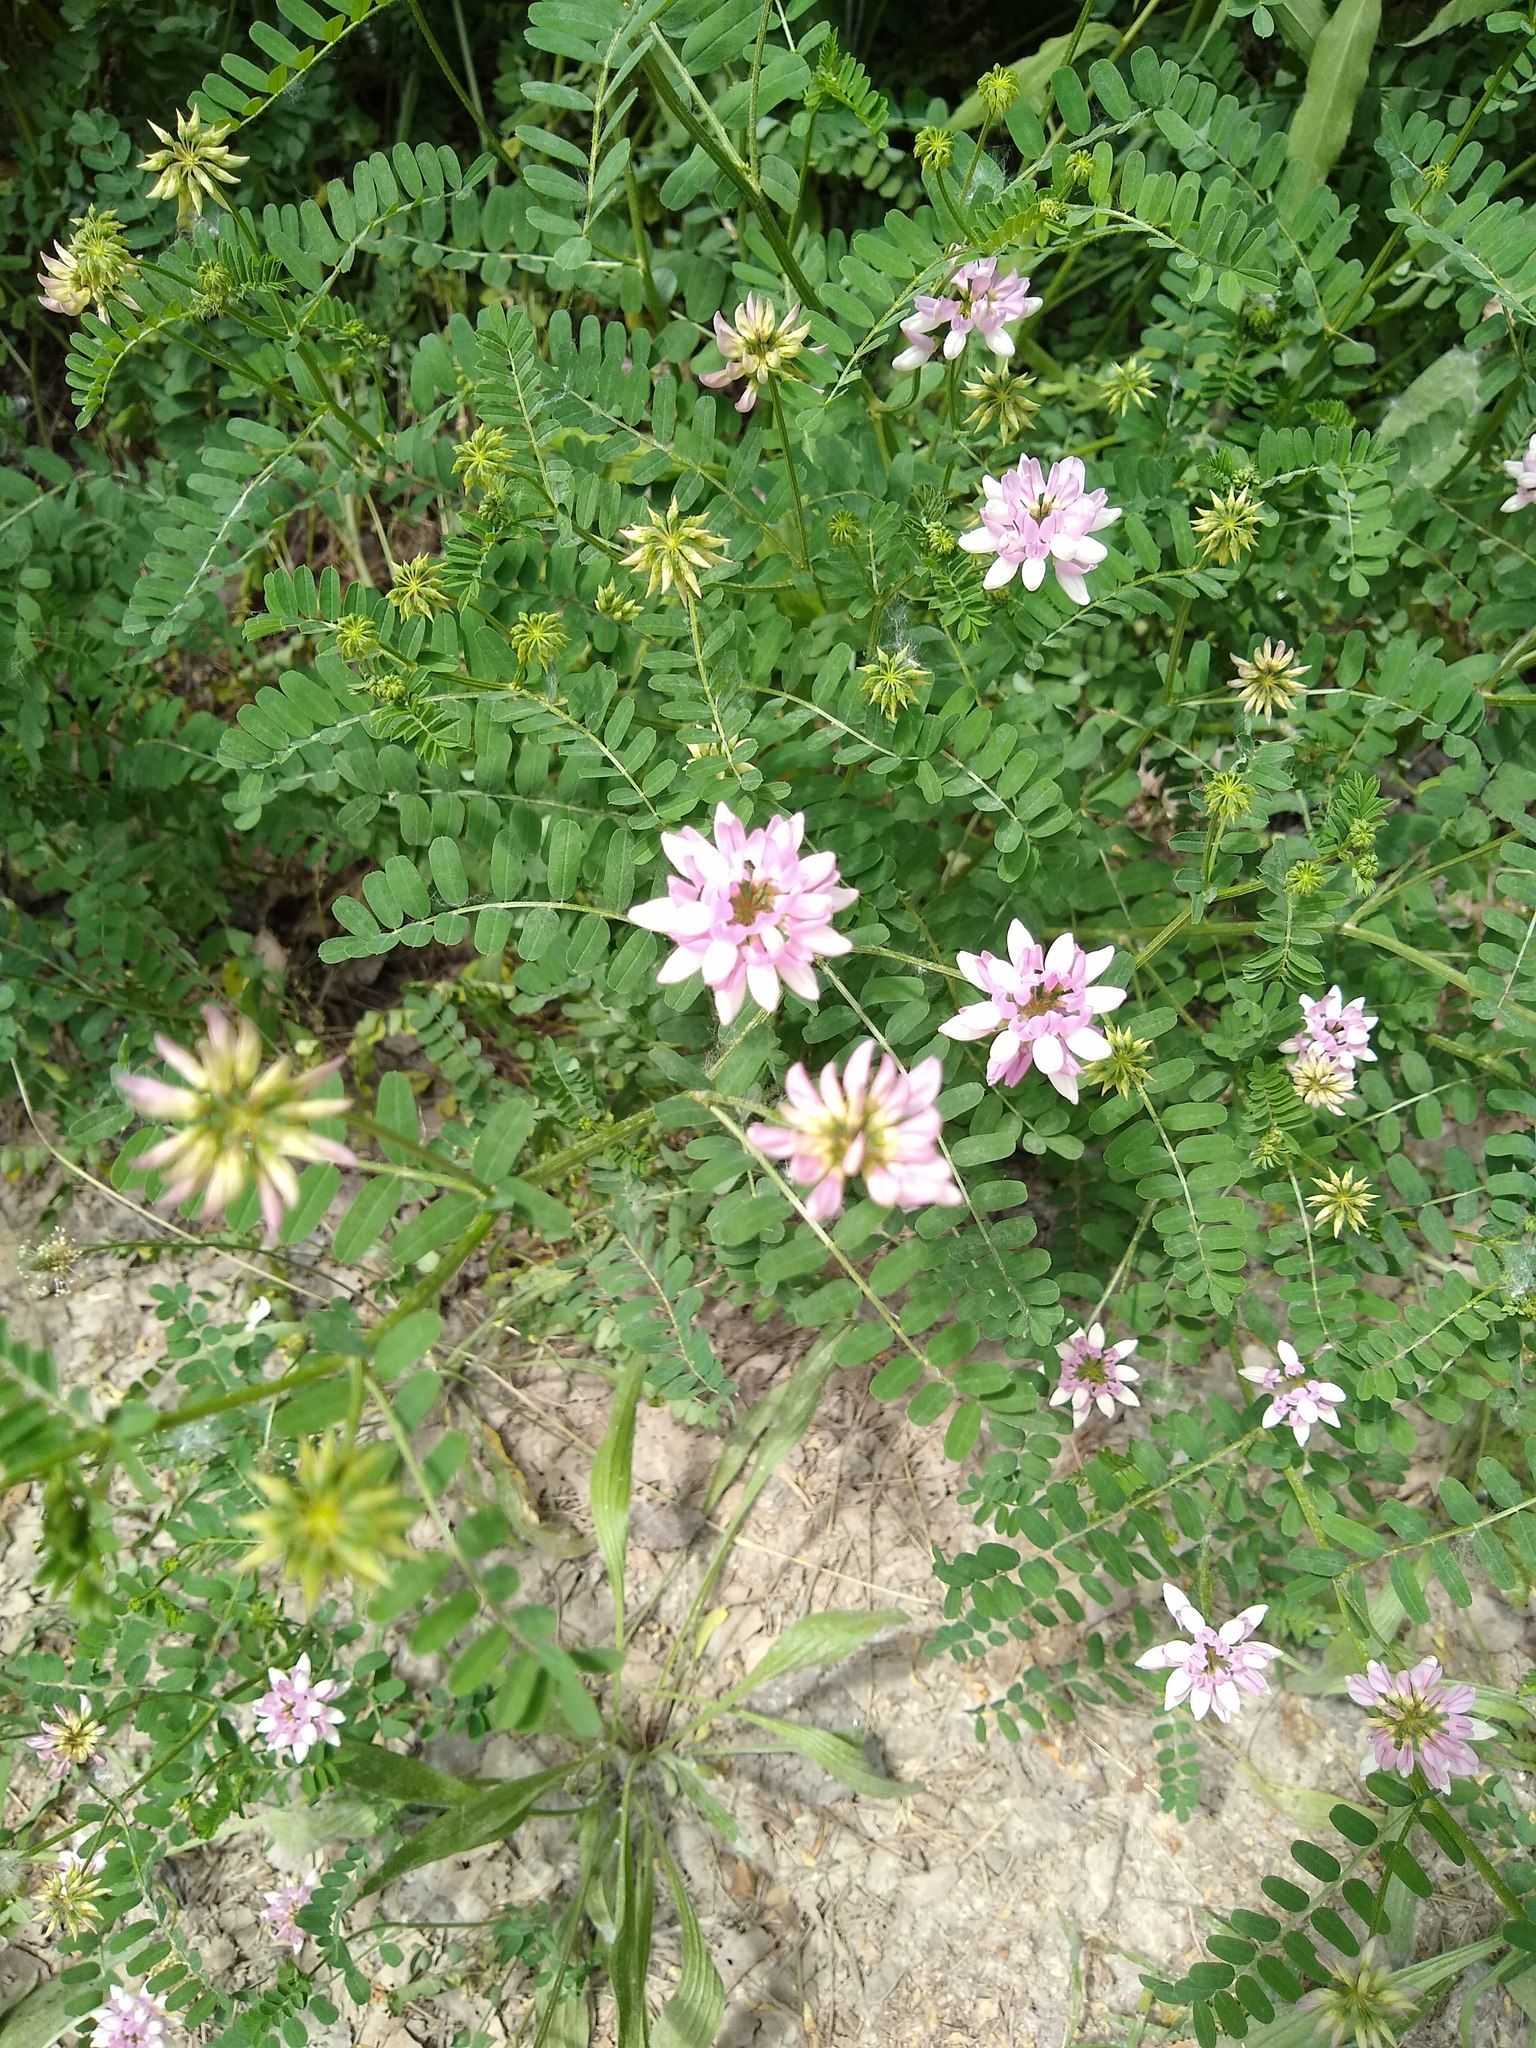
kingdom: Plantae
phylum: Tracheophyta
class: Magnoliopsida
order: Fabales
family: Fabaceae
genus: Coronilla
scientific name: Coronilla varia
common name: Crownvetch
